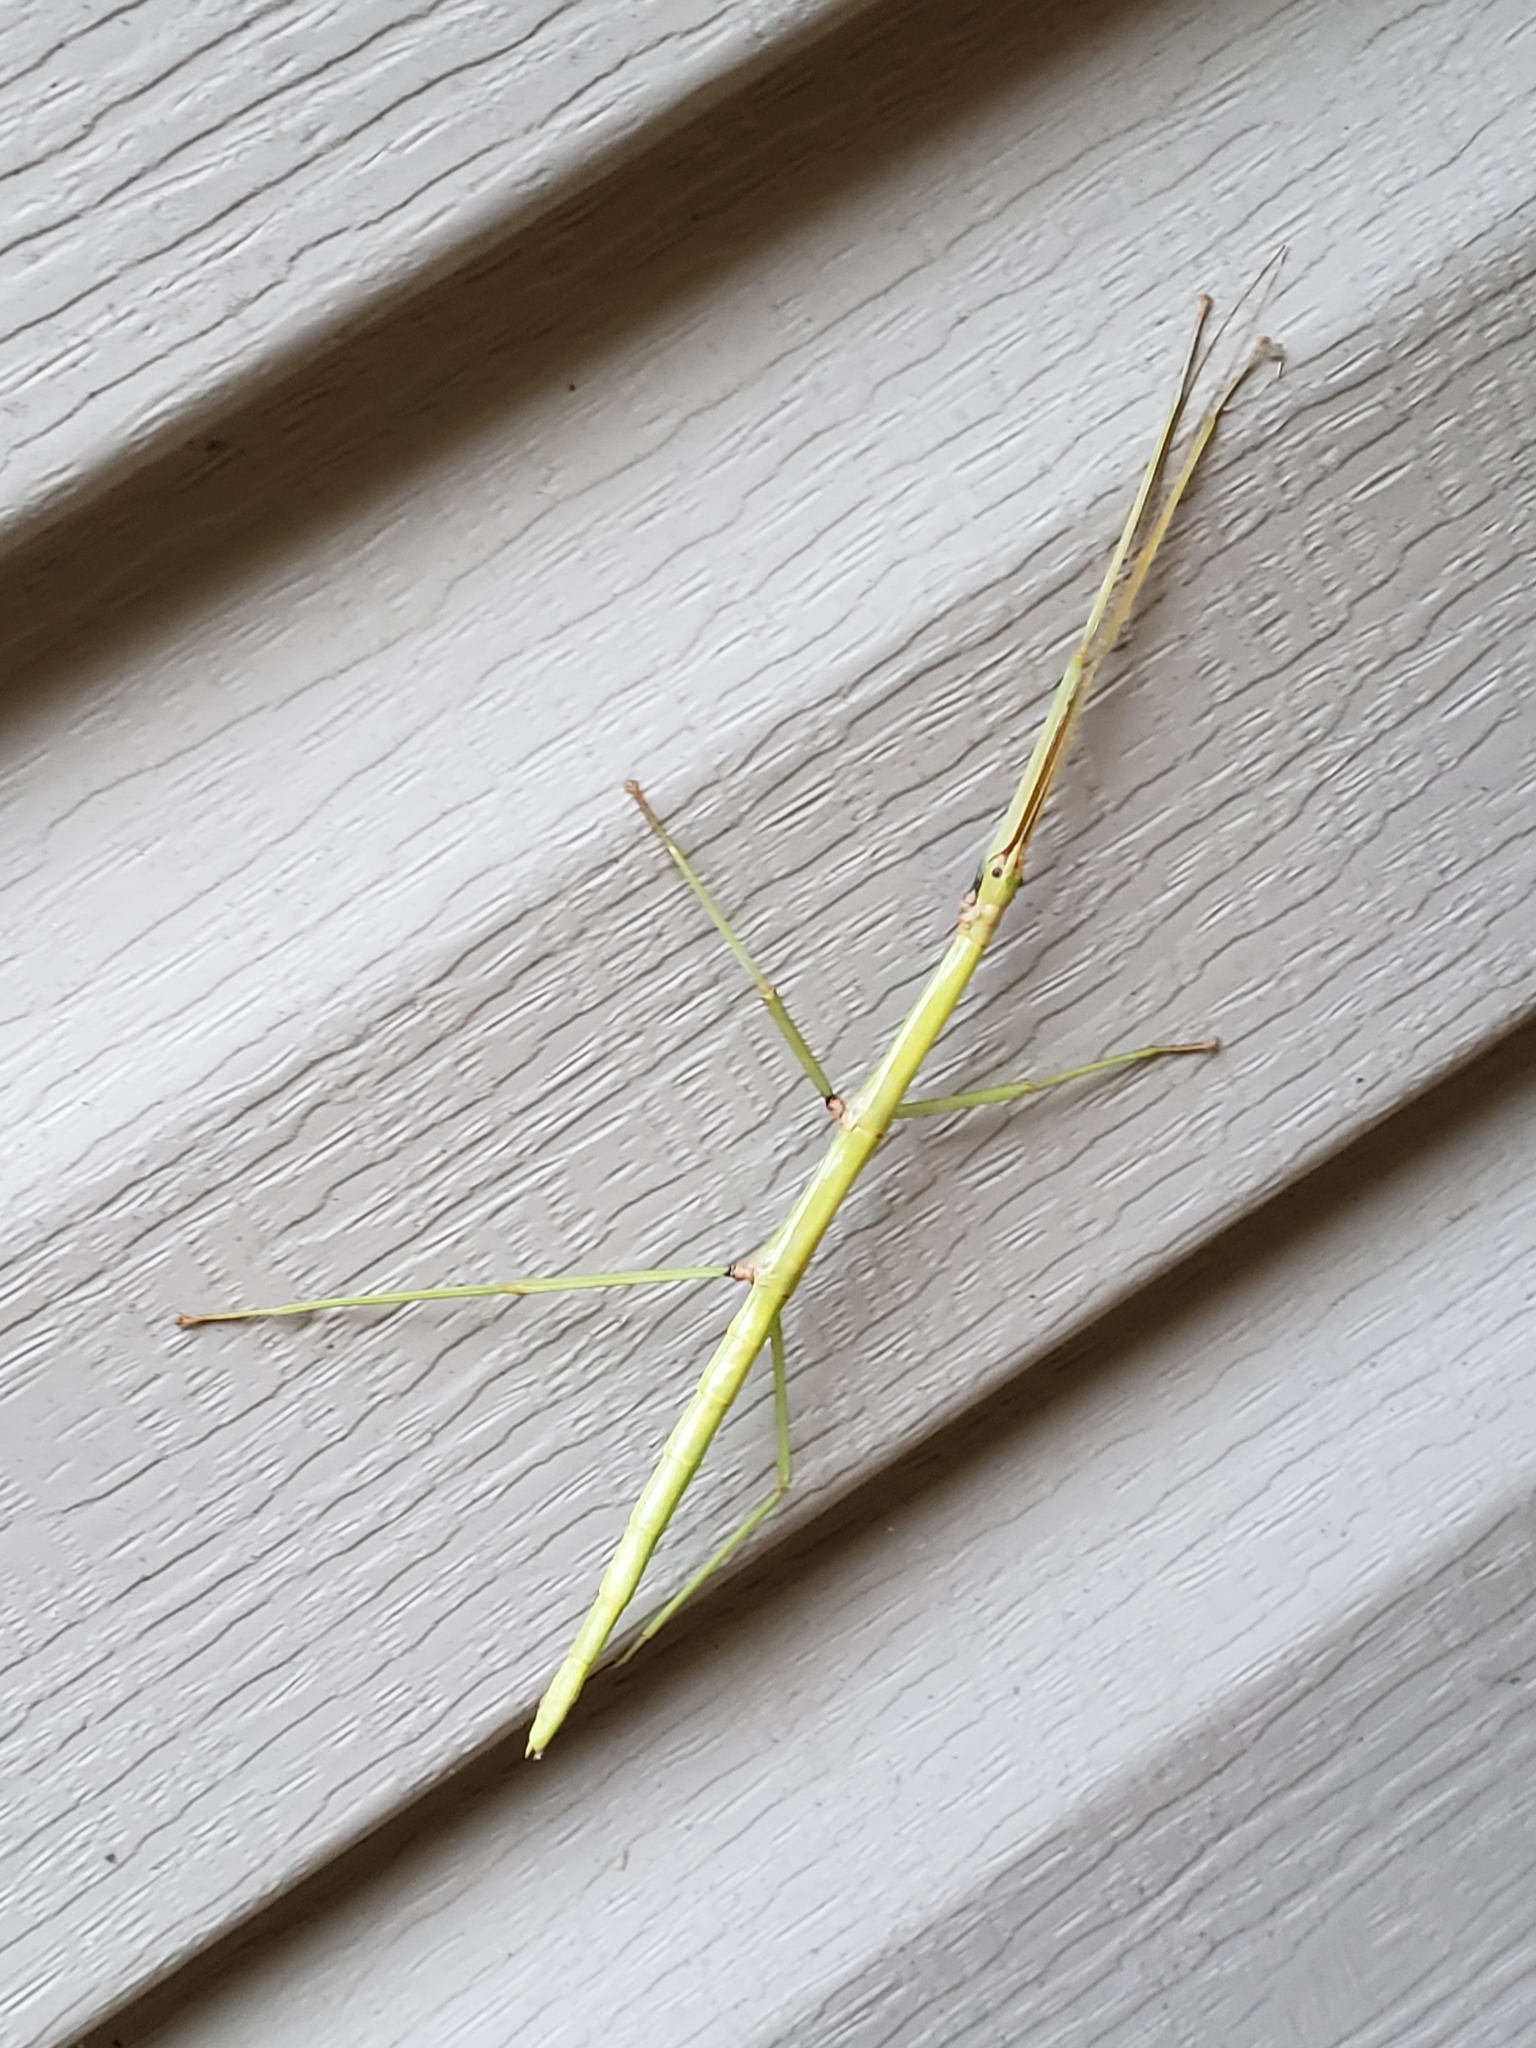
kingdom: Animalia
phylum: Arthropoda
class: Insecta
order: Phasmida
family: Diapheromeridae
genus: Diapheromera
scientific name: Diapheromera femorata
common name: Common american walkingstick
